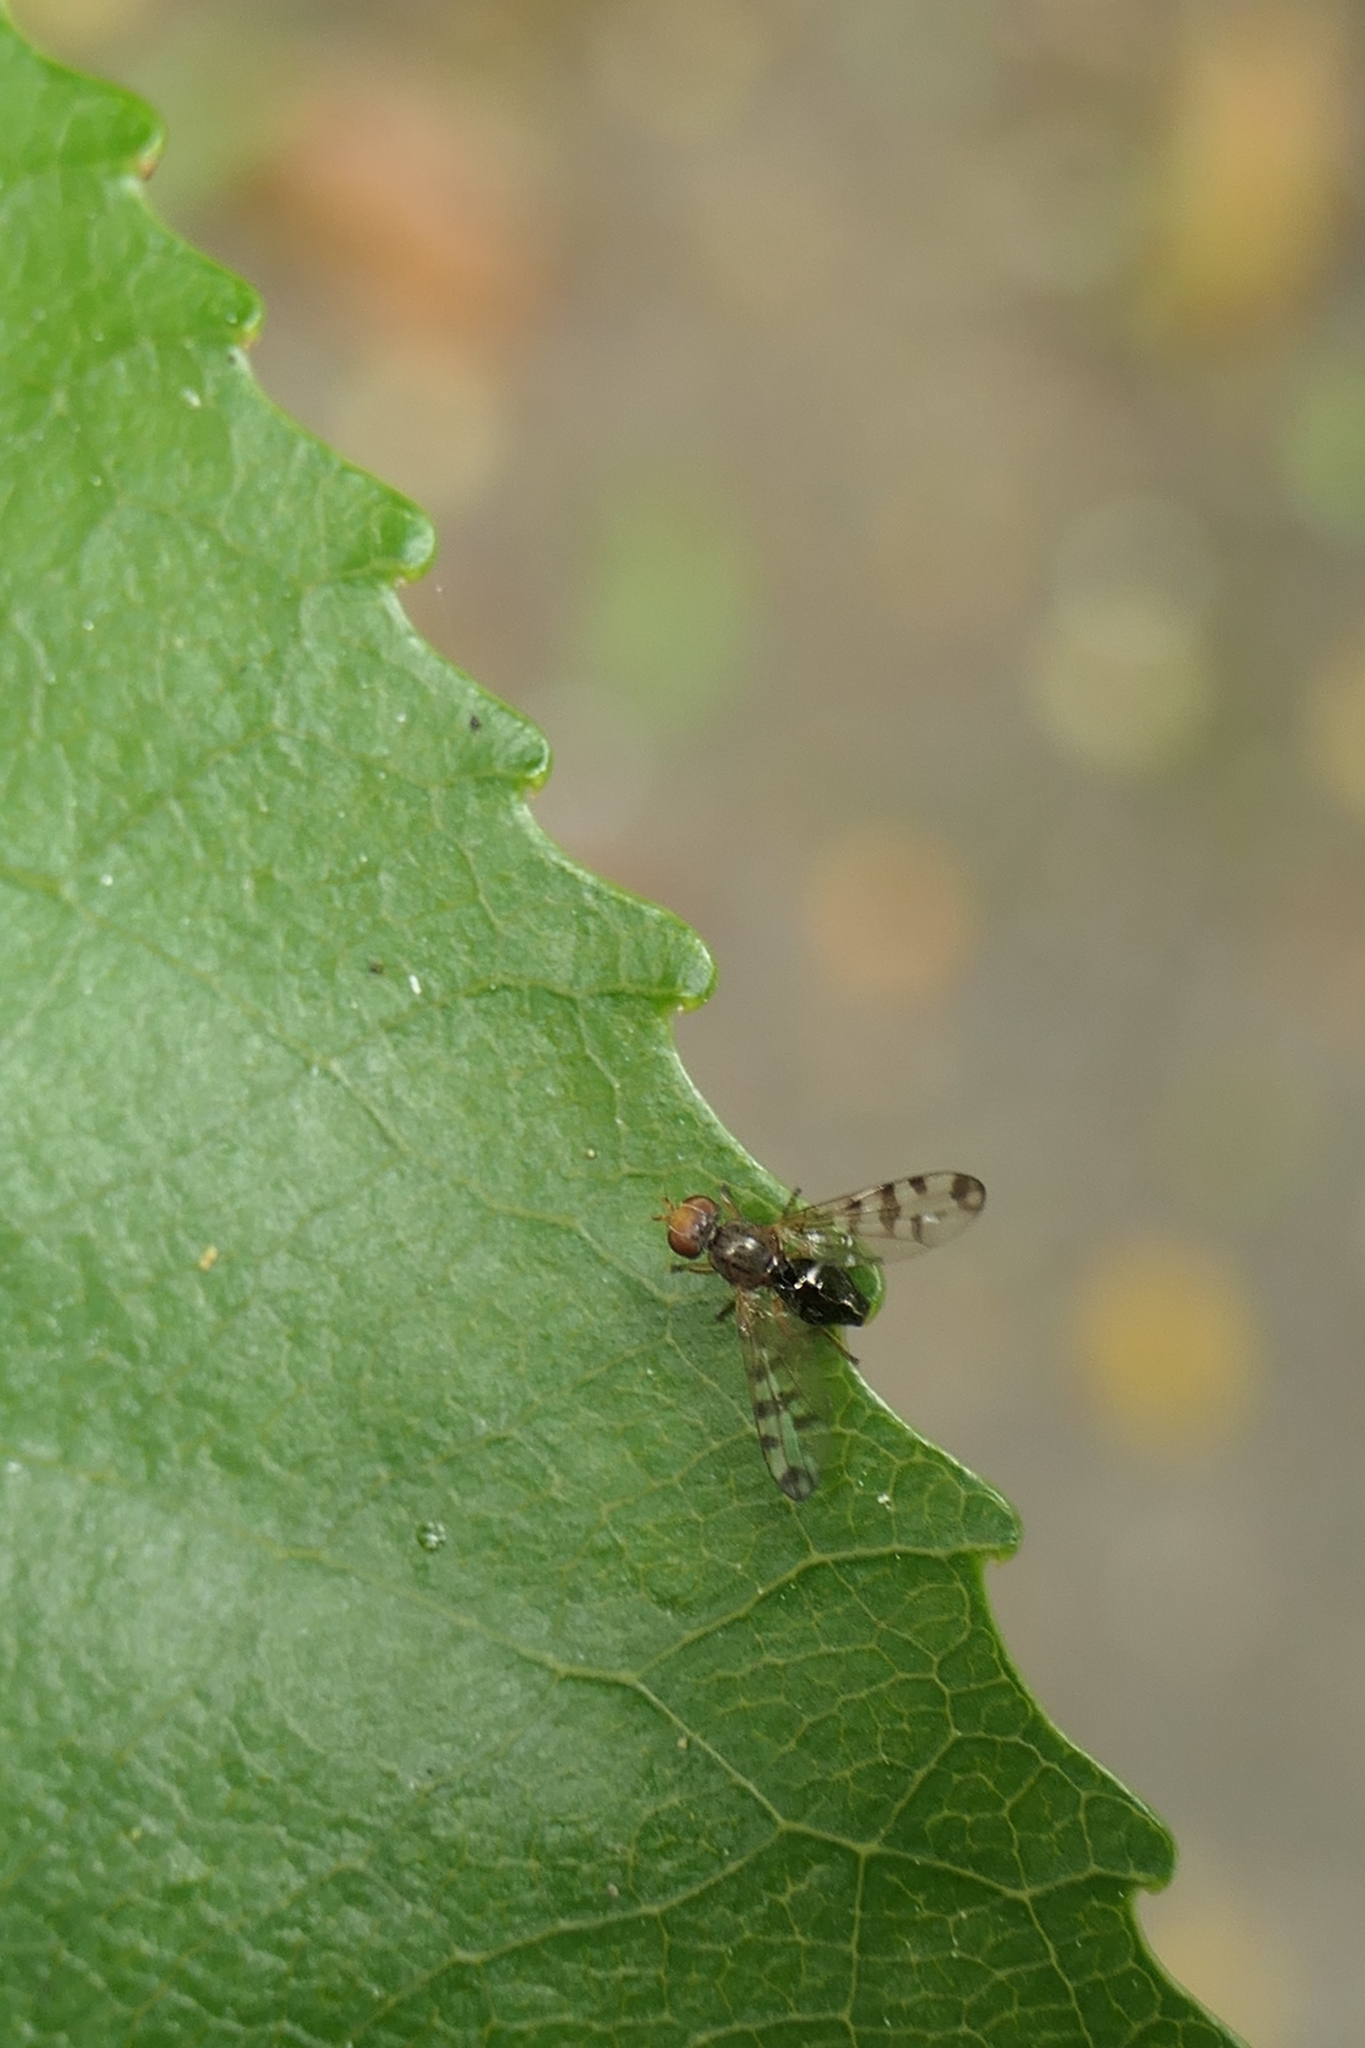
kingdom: Animalia
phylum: Arthropoda
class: Insecta
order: Diptera
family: Platystomatidae
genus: Zealandortalis
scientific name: Zealandortalis philpotti
